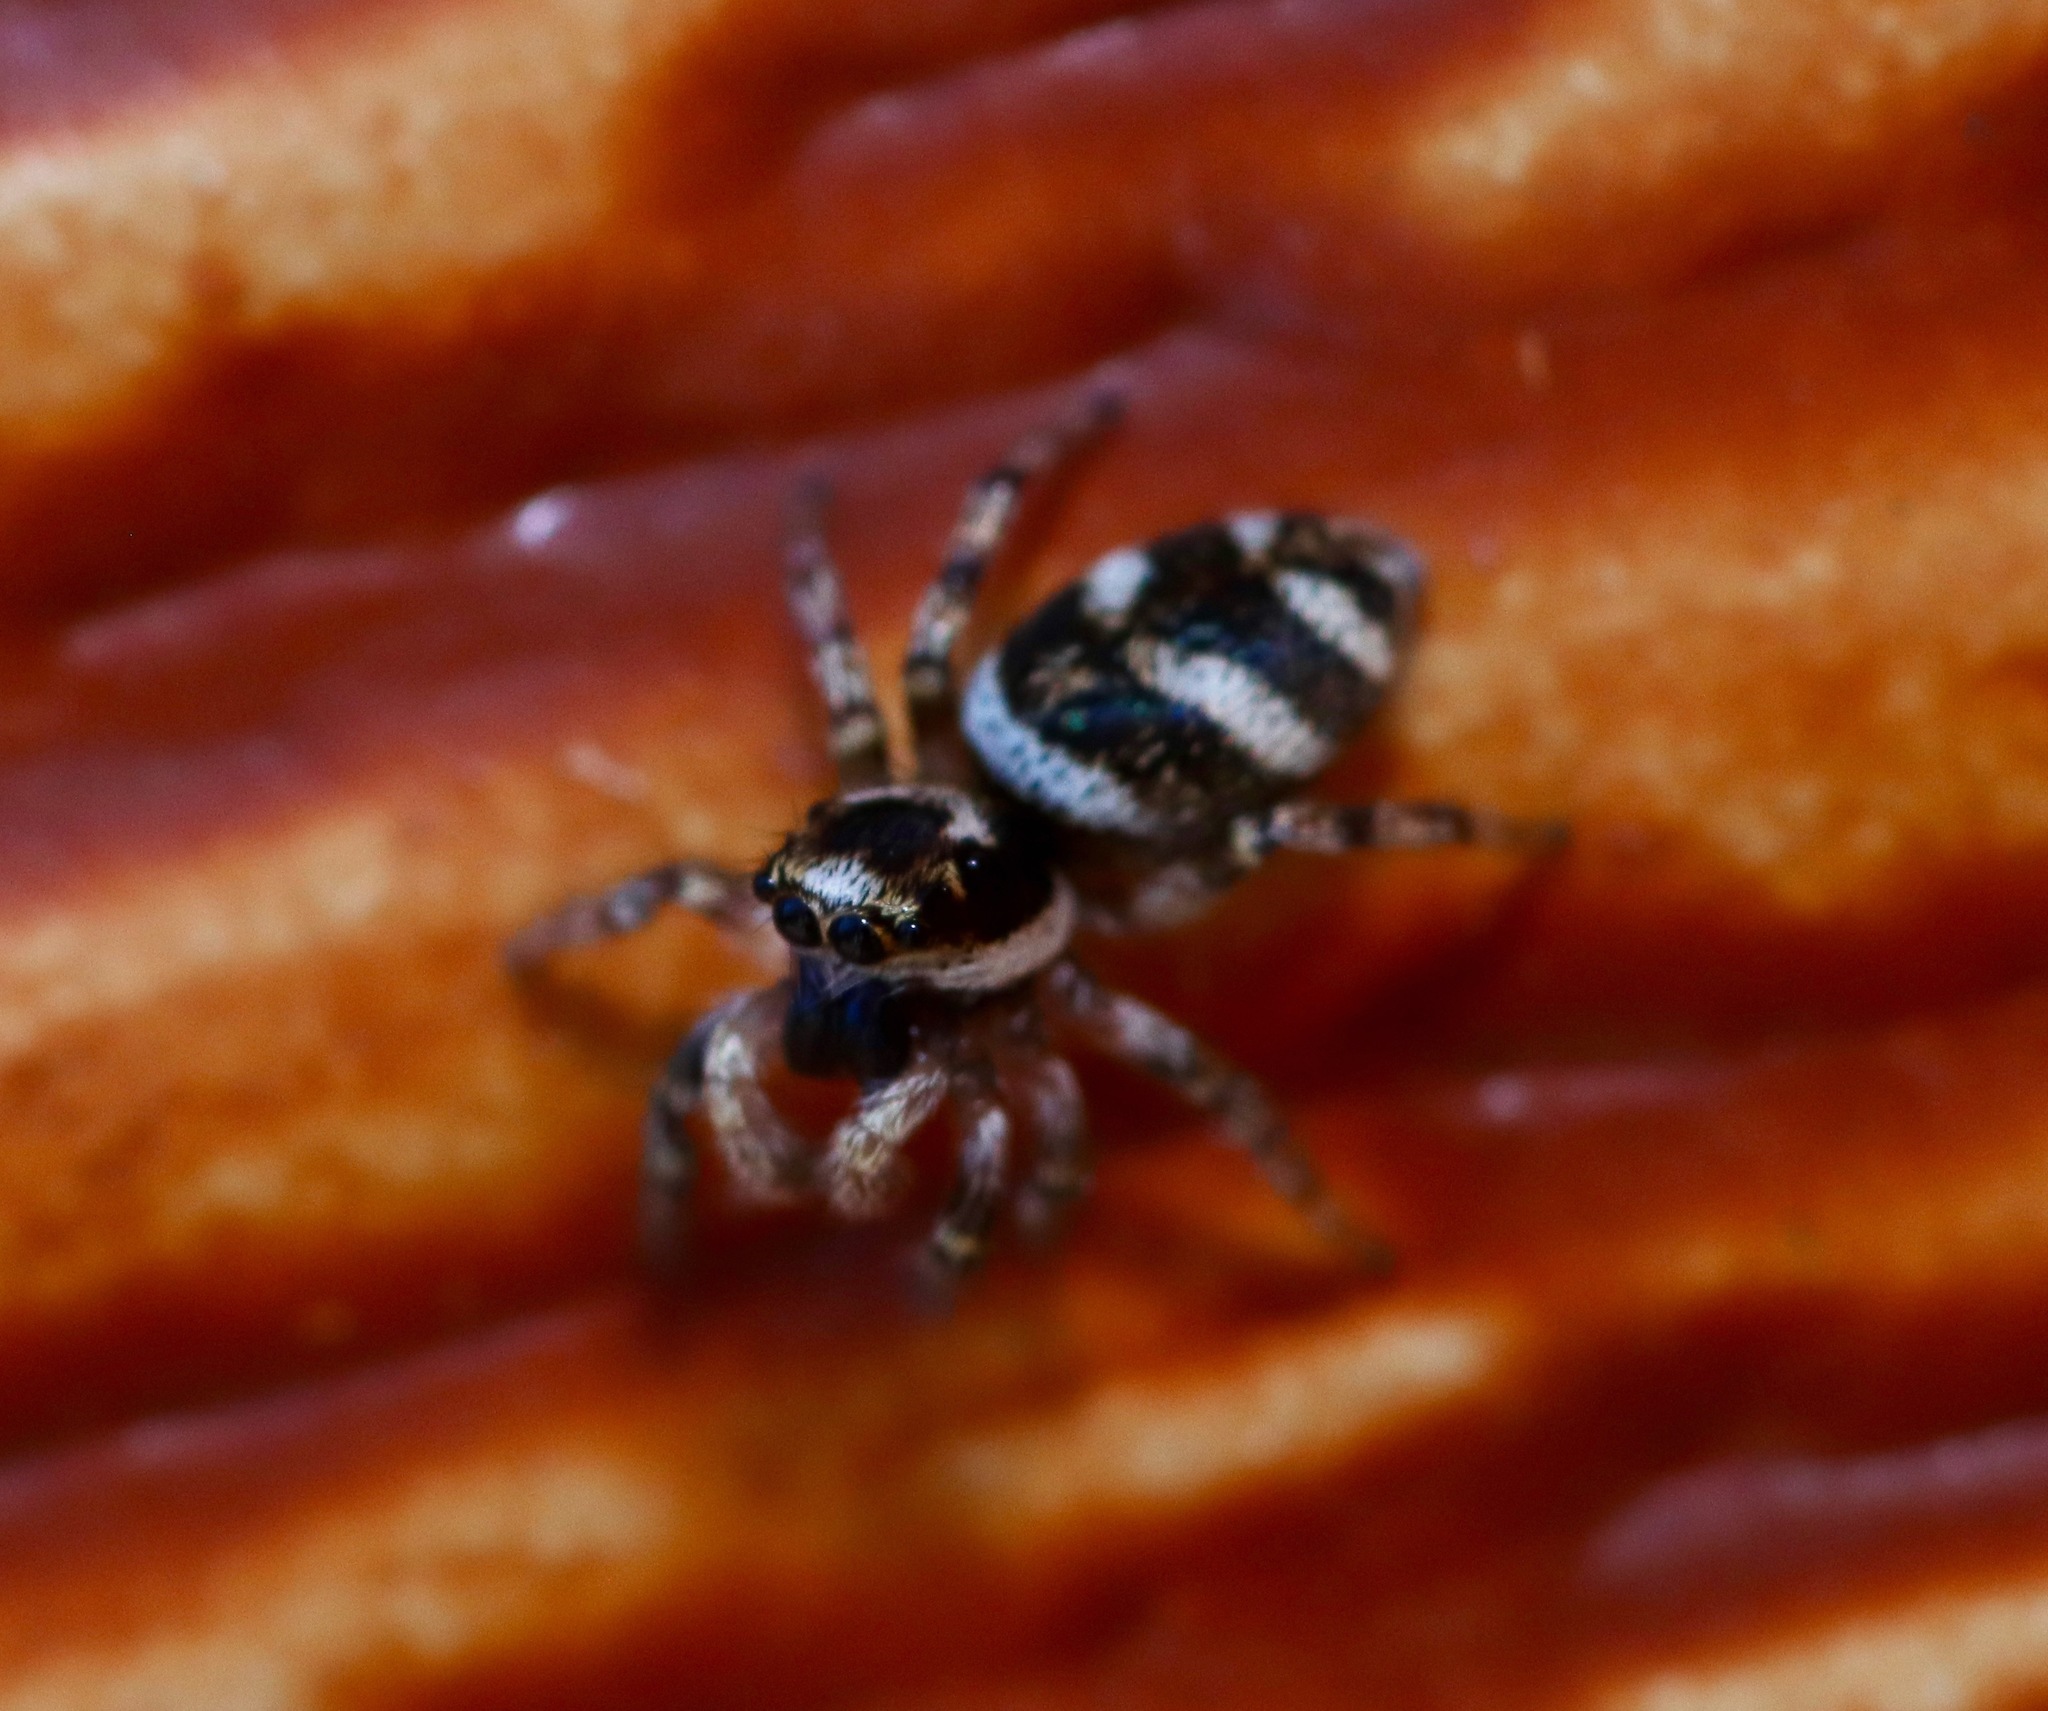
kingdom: Animalia
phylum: Arthropoda
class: Arachnida
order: Araneae
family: Salticidae
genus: Salticus
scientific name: Salticus scenicus
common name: Zebra jumper
